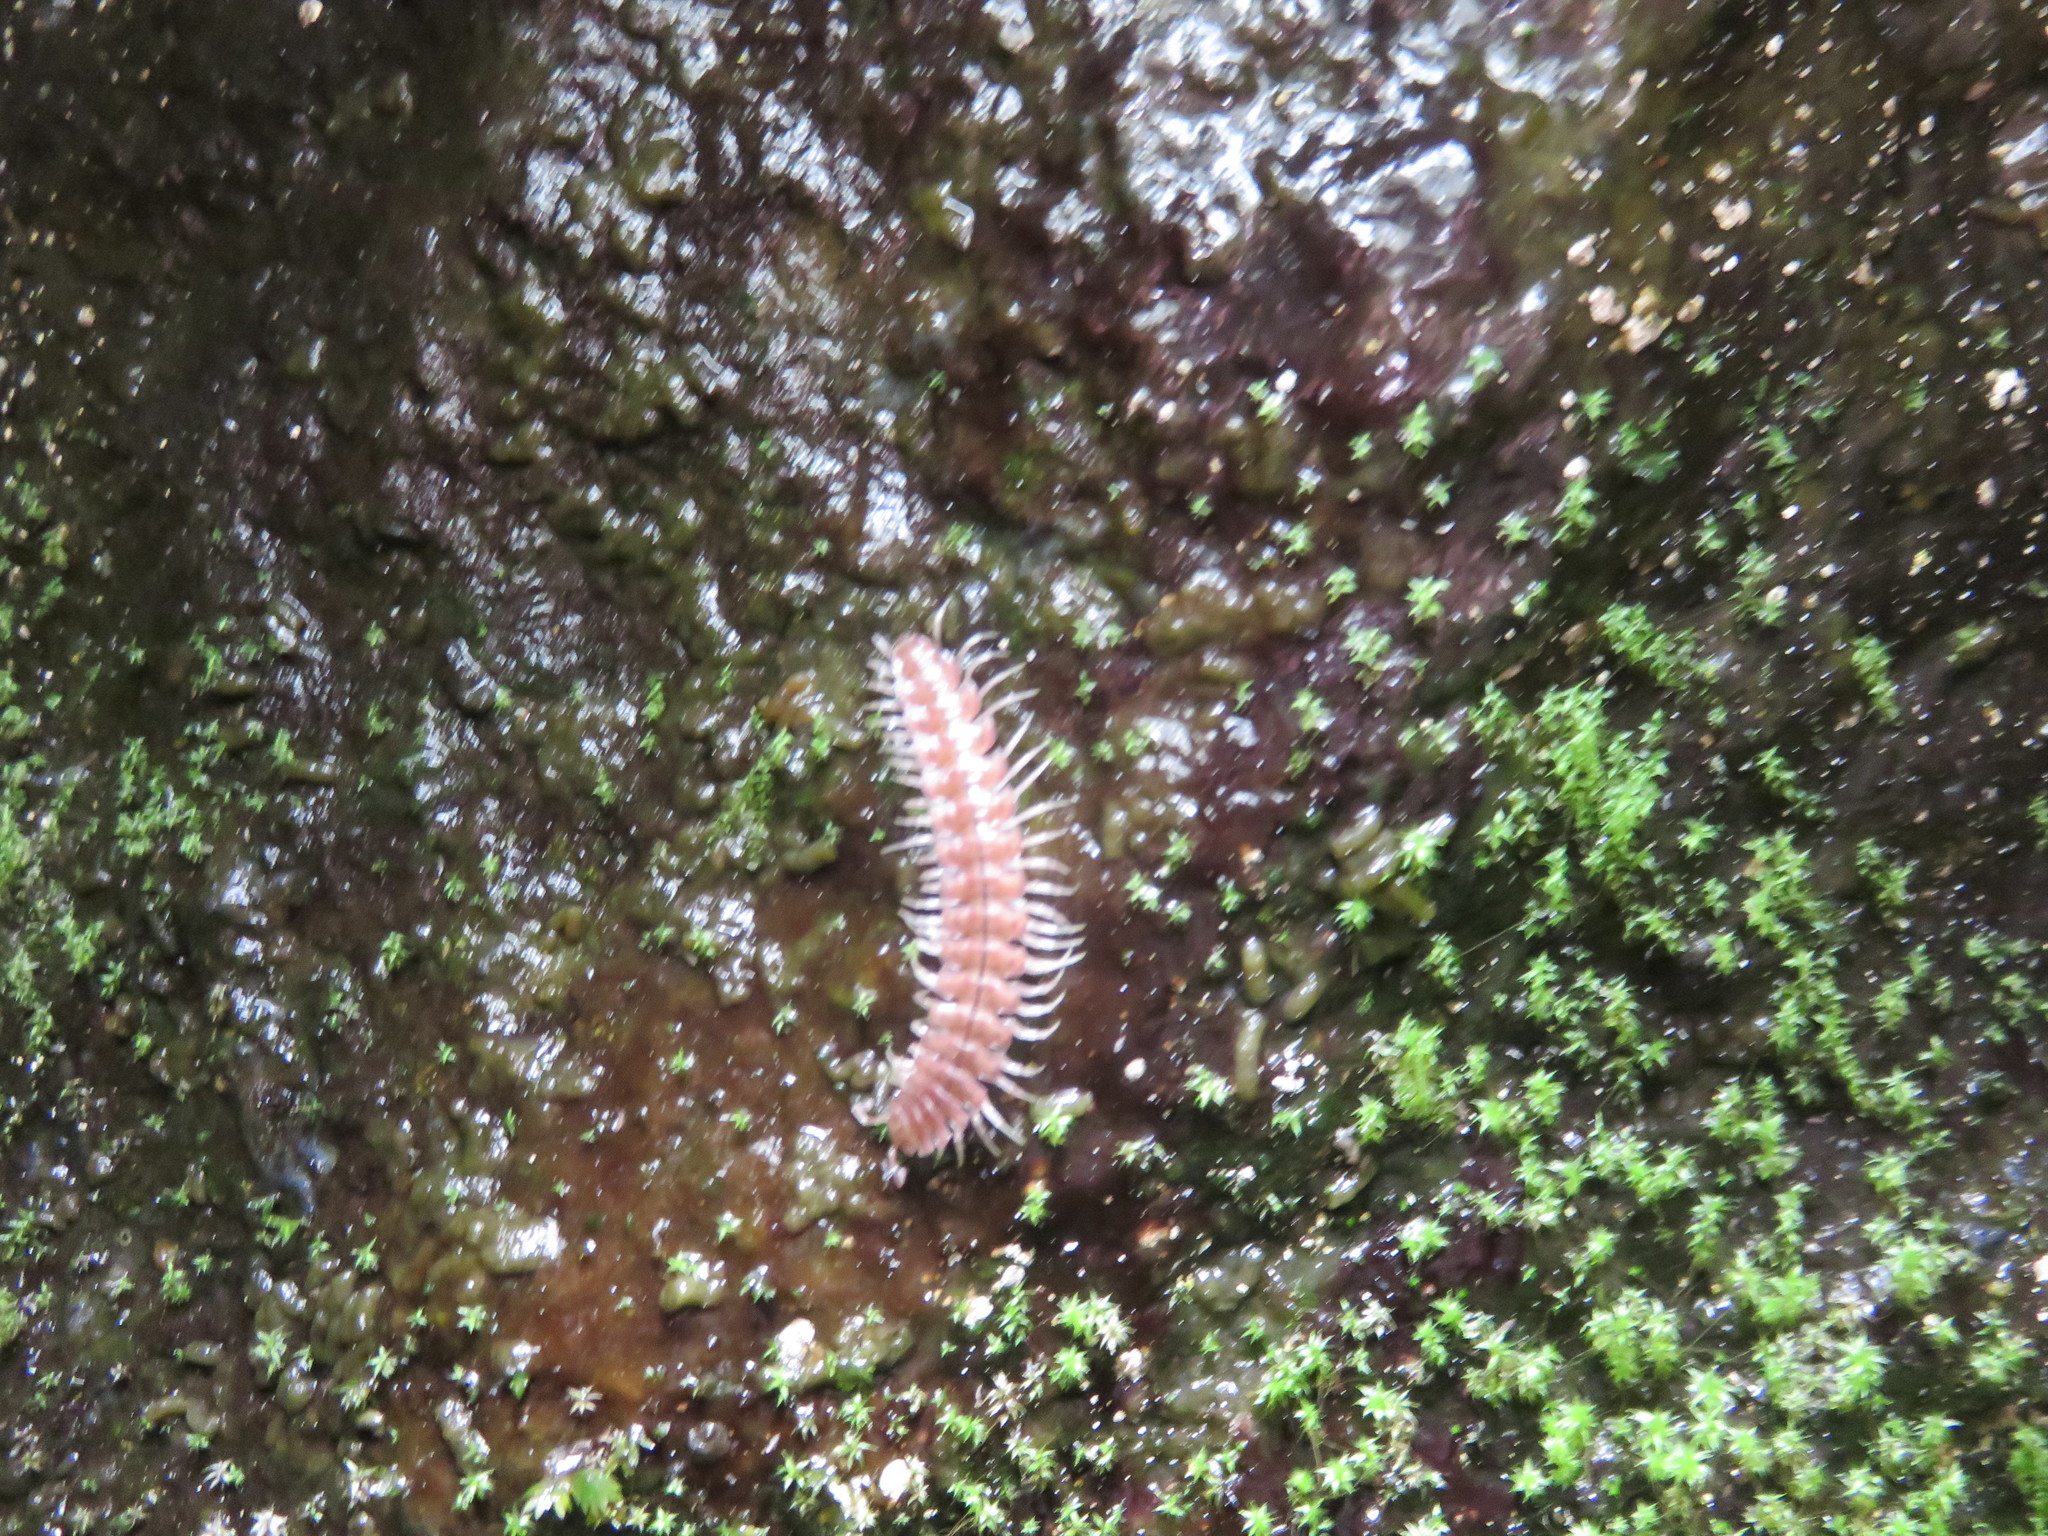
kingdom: Animalia
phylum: Arthropoda
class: Diplopoda
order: Polydesmida
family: Polydesmidae
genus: Epanerchodus
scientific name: Epanerchodus longus
